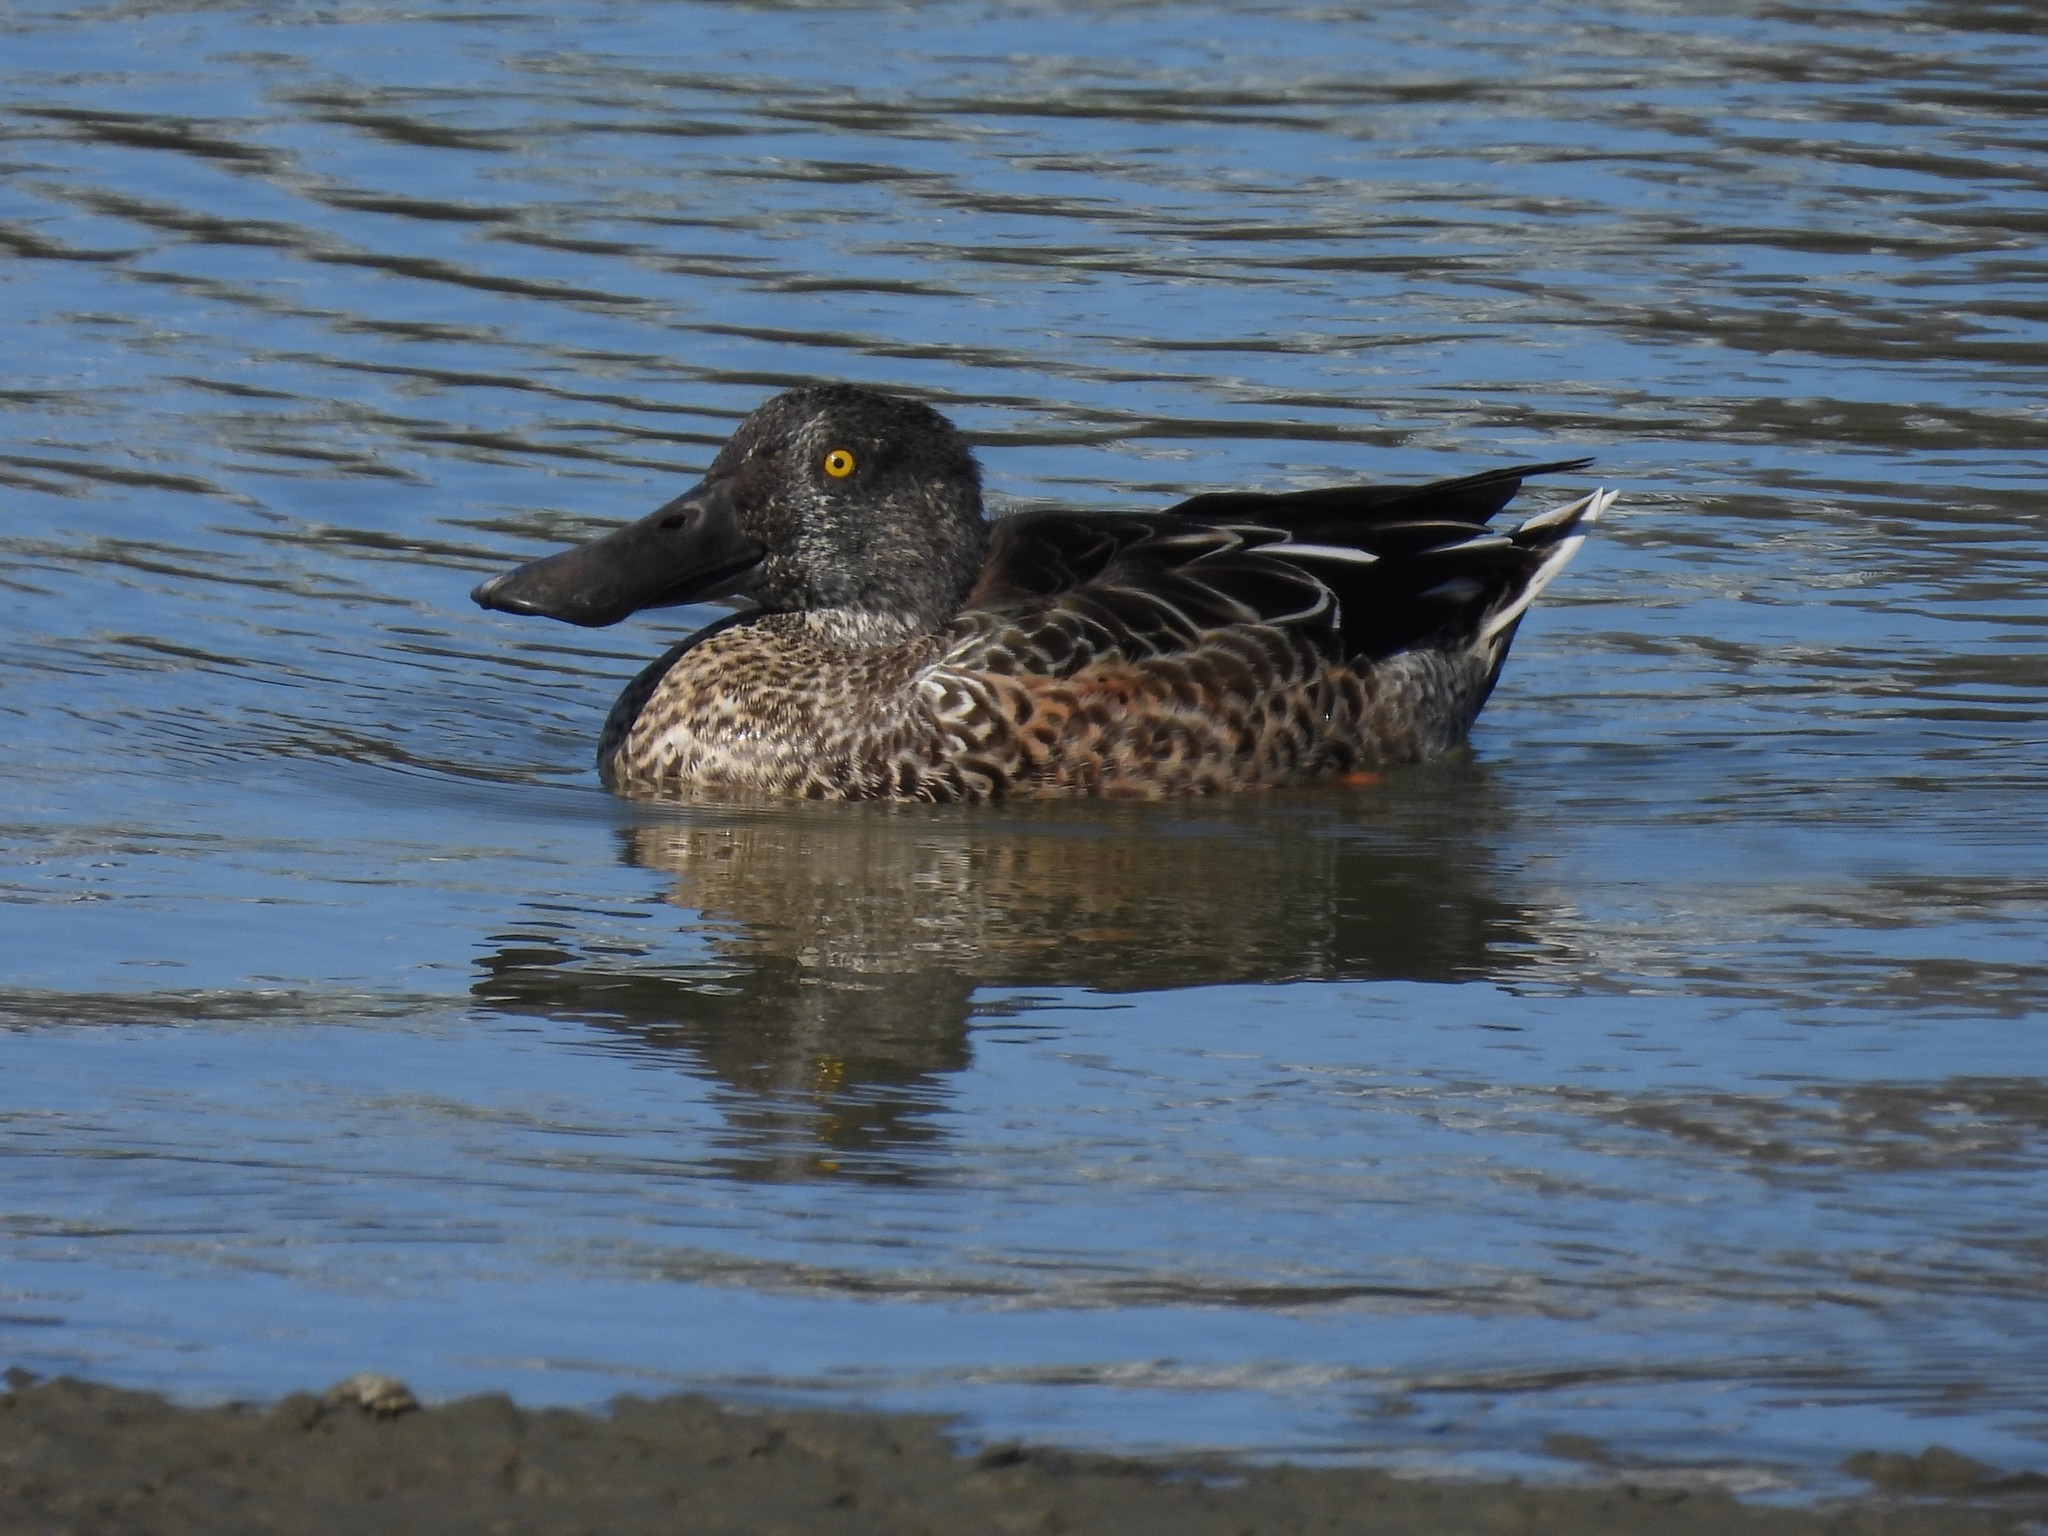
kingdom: Animalia
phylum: Chordata
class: Aves
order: Anseriformes
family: Anatidae
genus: Spatula
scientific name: Spatula clypeata
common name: Northern shoveler
